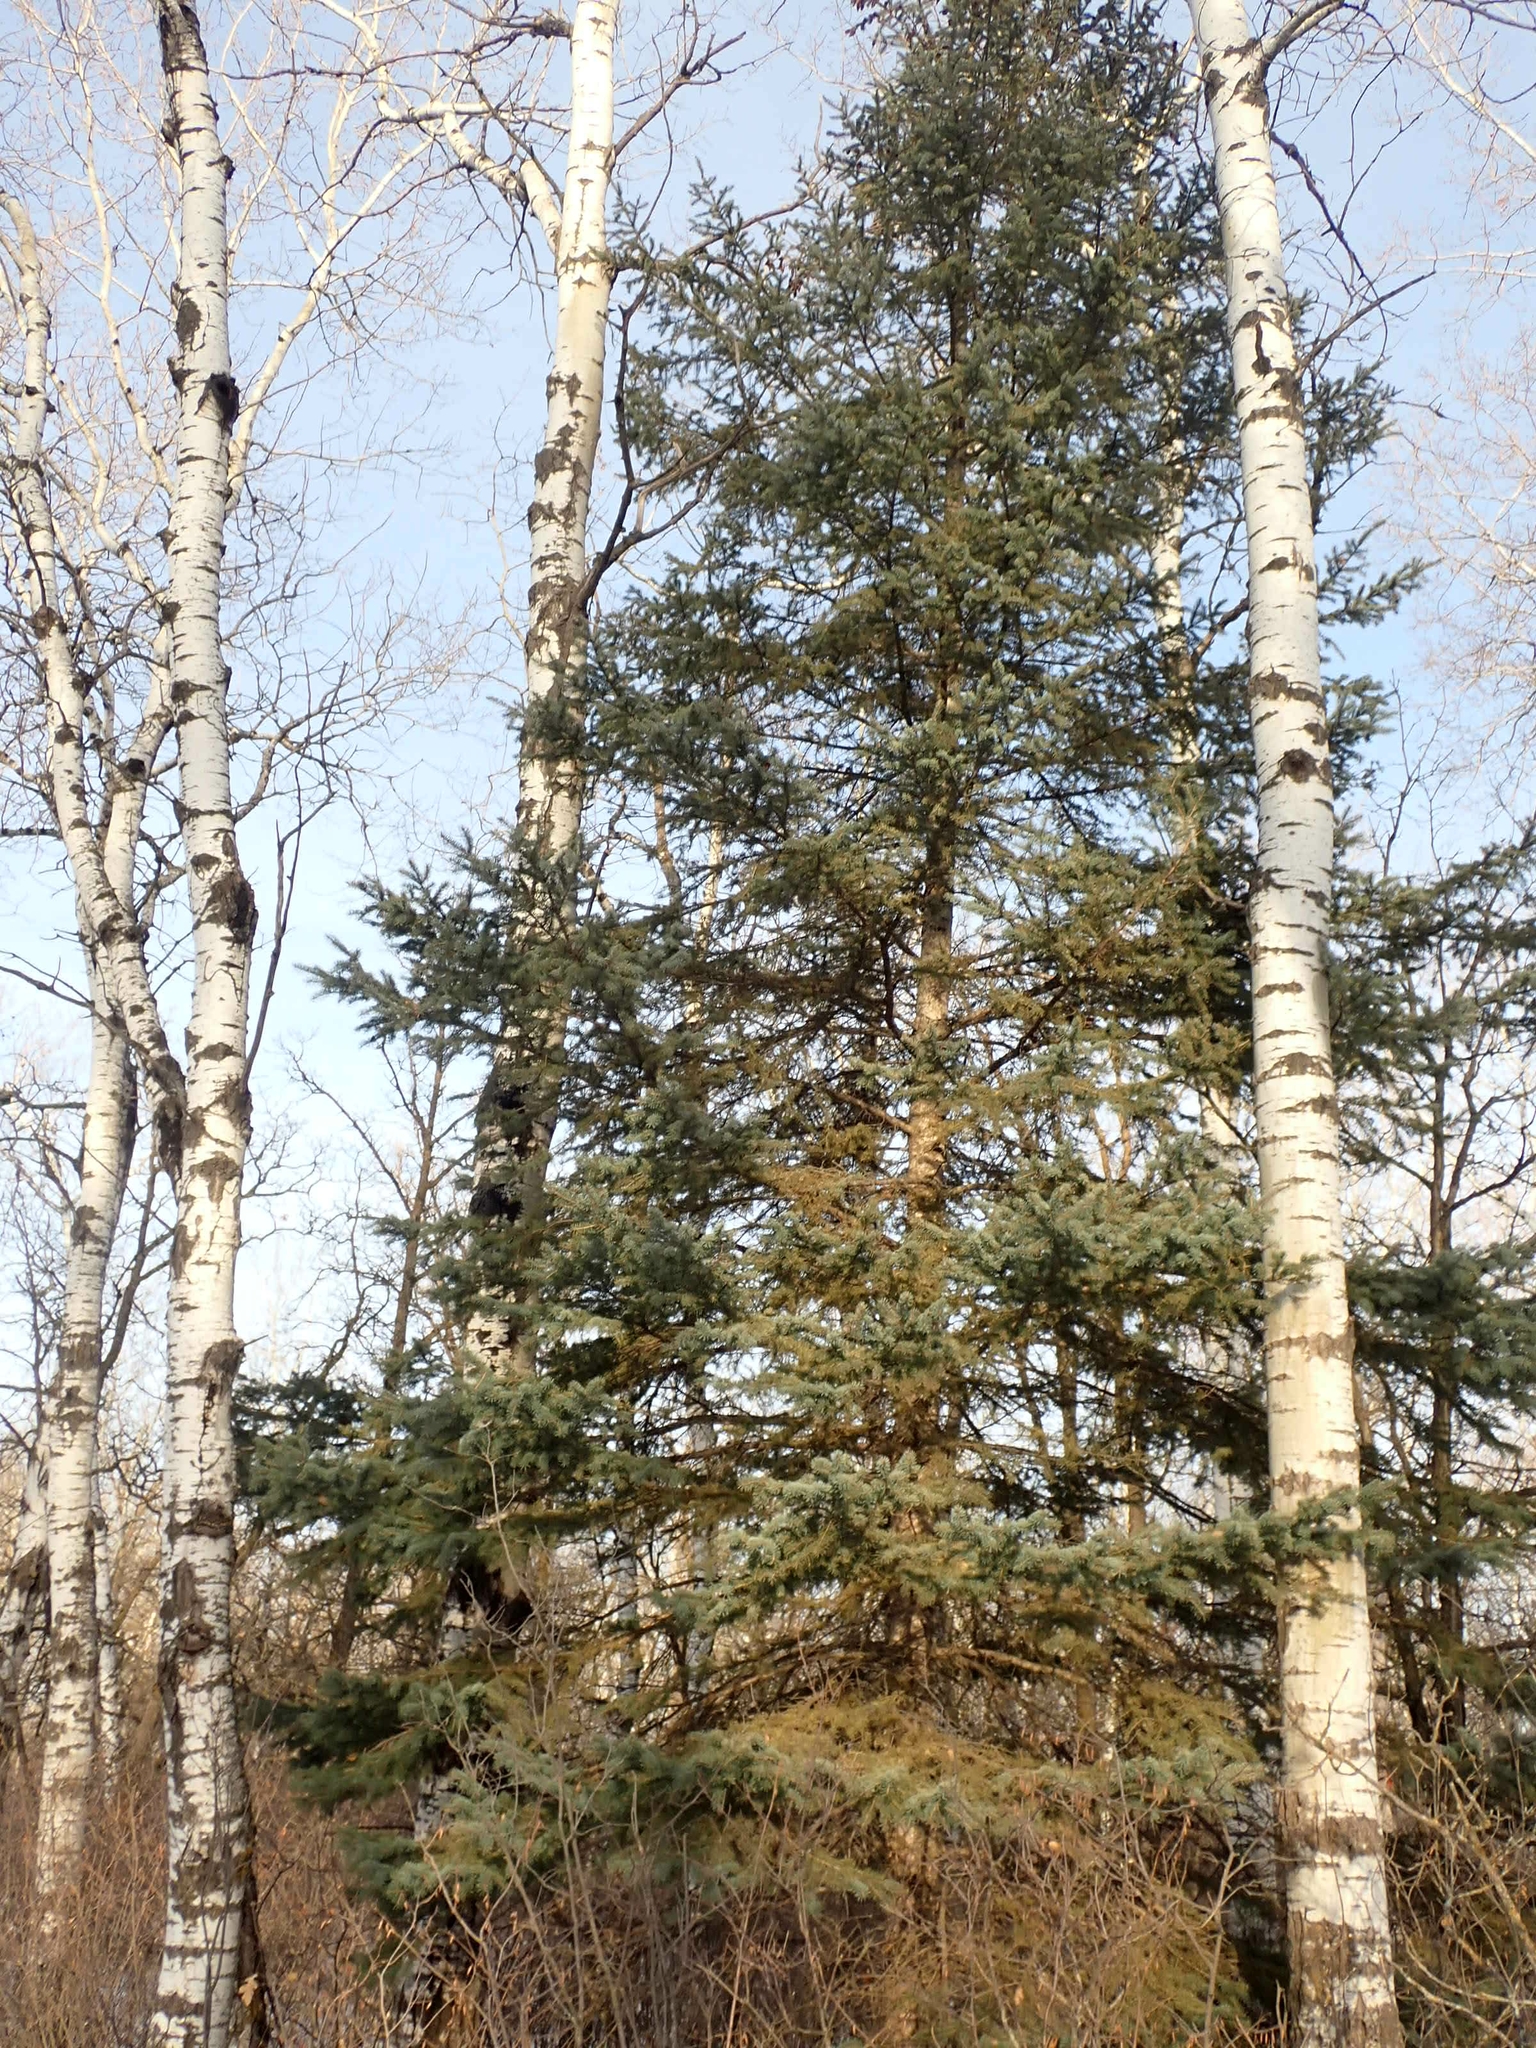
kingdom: Plantae
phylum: Tracheophyta
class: Pinopsida
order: Pinales
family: Pinaceae
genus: Picea
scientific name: Picea glauca
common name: White spruce
